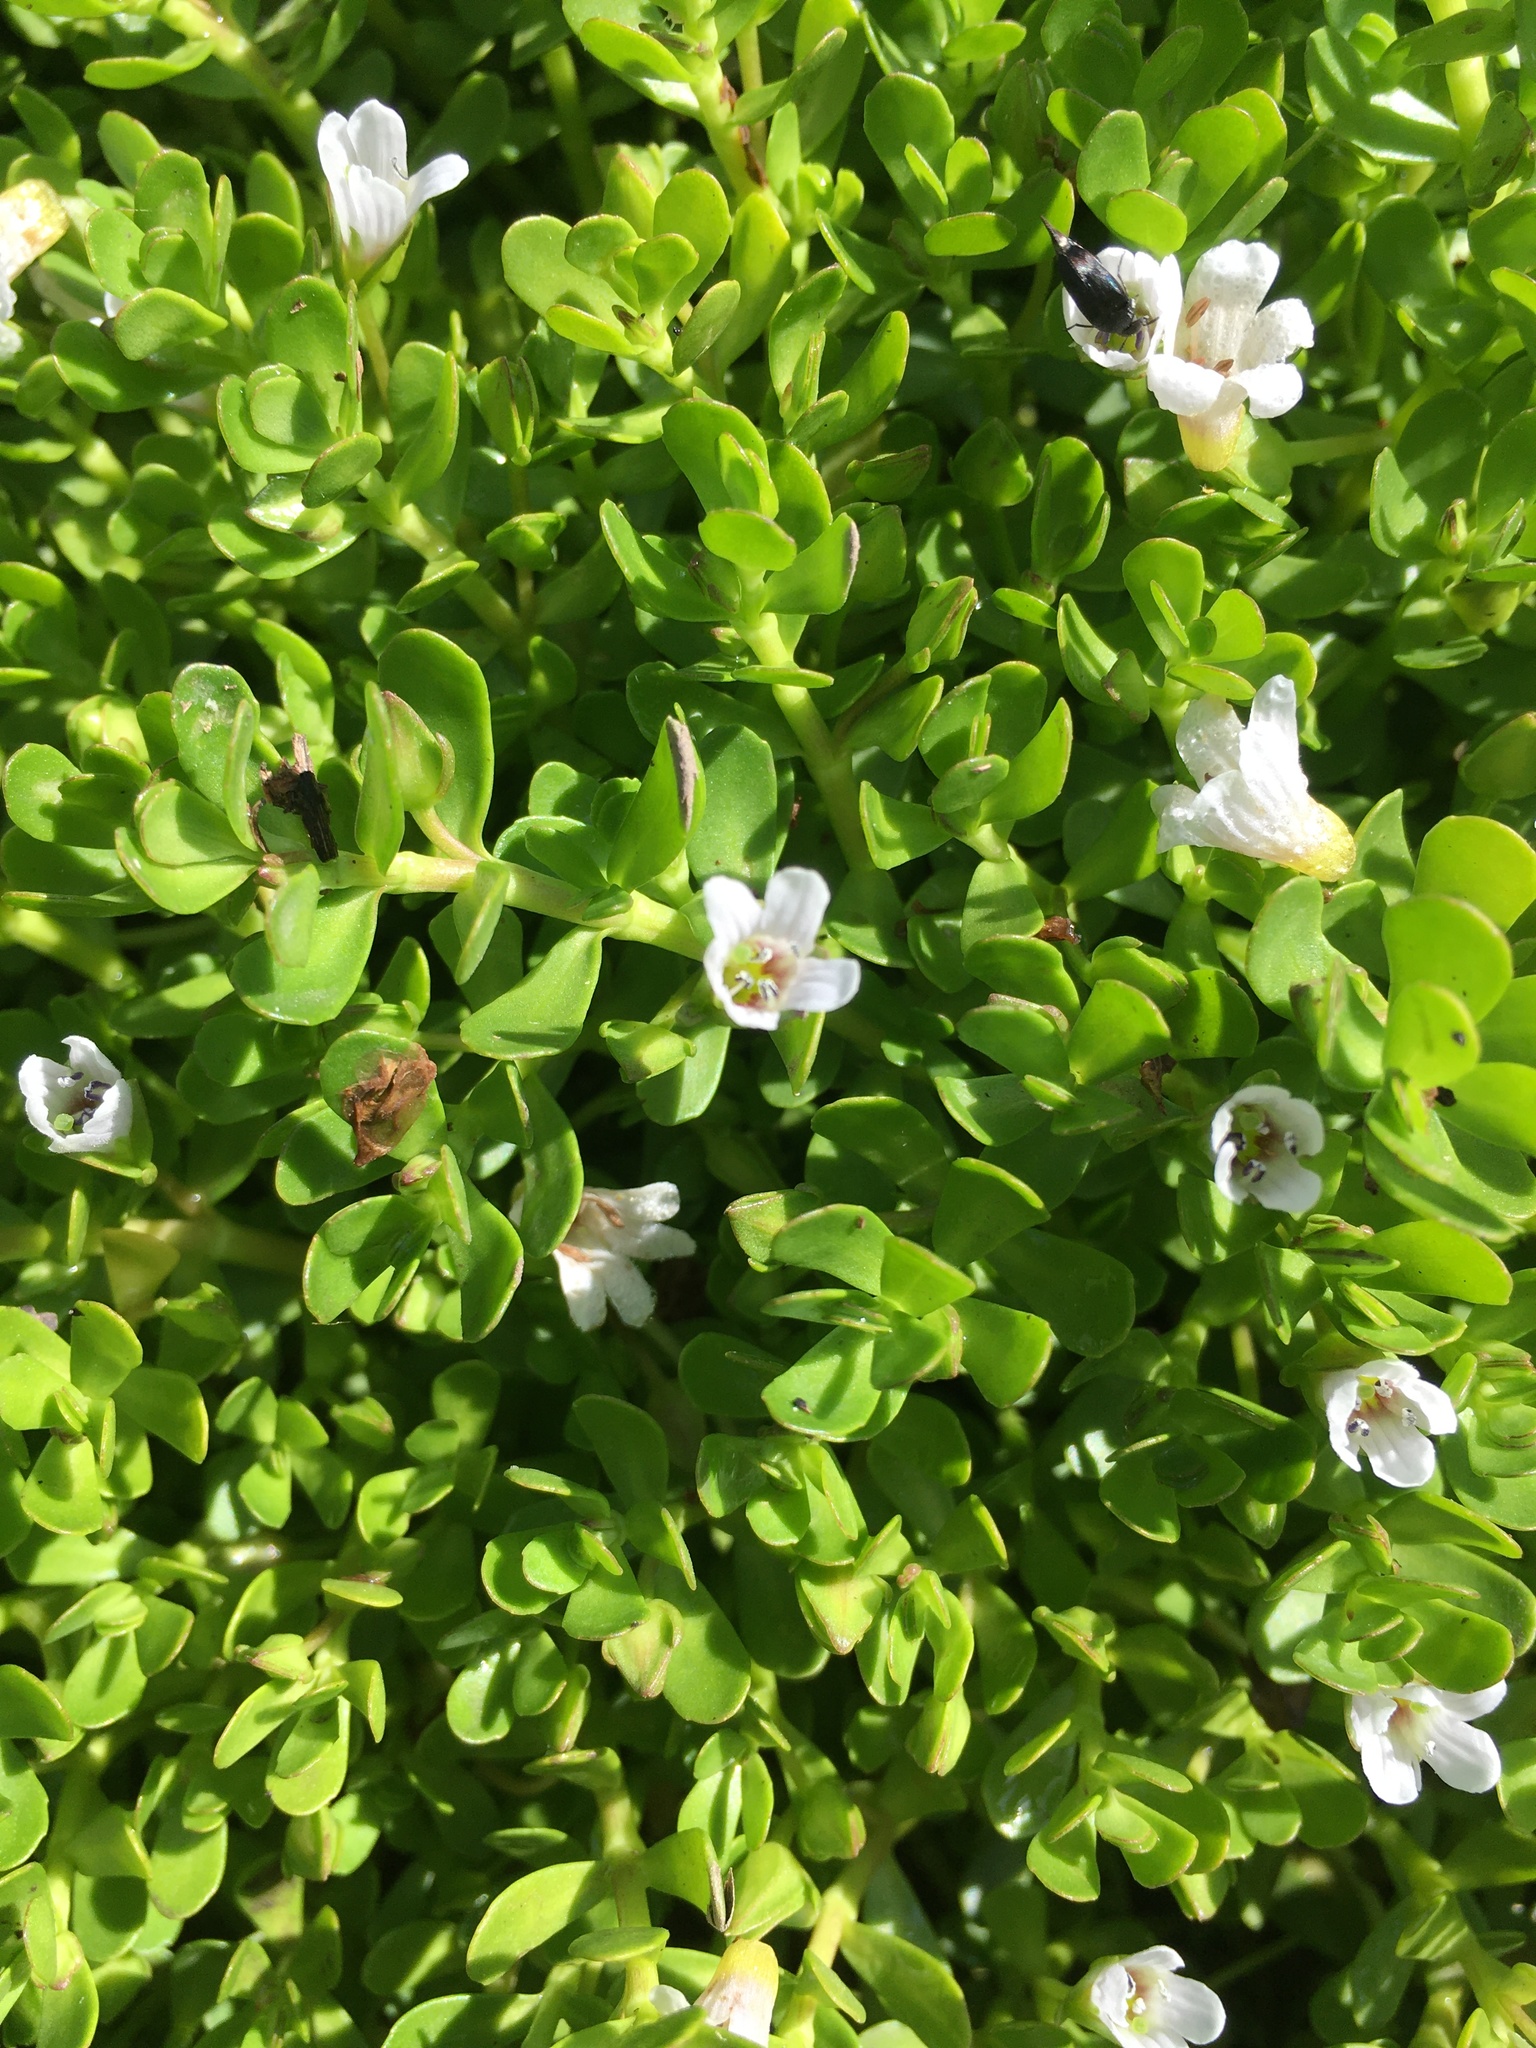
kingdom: Plantae
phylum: Tracheophyta
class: Magnoliopsida
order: Lamiales
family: Plantaginaceae
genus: Bacopa
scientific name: Bacopa monnieri
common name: Indian-pennywort
